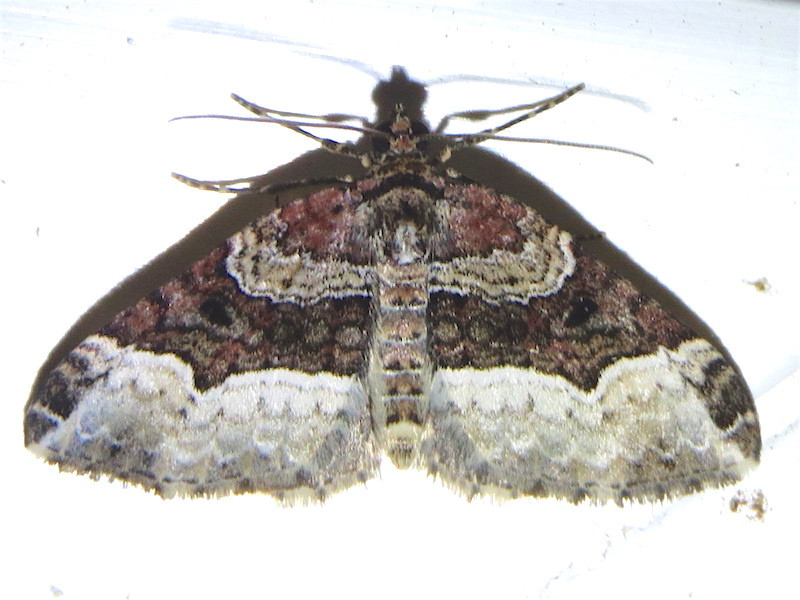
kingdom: Animalia
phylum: Arthropoda
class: Insecta
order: Lepidoptera
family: Geometridae
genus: Euphyia
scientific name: Euphyia intermediata
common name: Sharp-angled carpet
